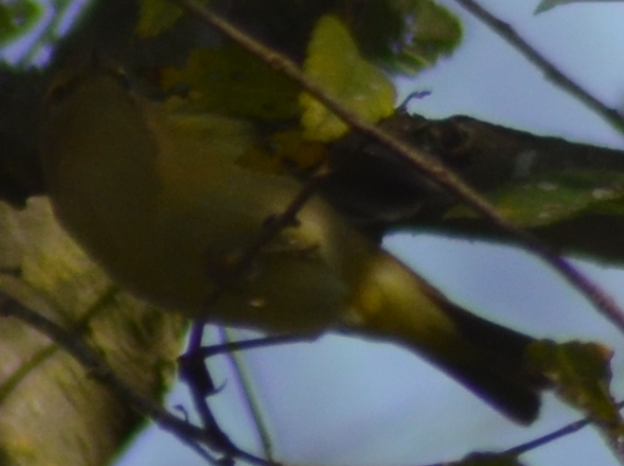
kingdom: Animalia
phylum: Chordata
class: Aves
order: Passeriformes
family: Phylloscopidae
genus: Phylloscopus
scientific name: Phylloscopus collybita
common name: Common chiffchaff
